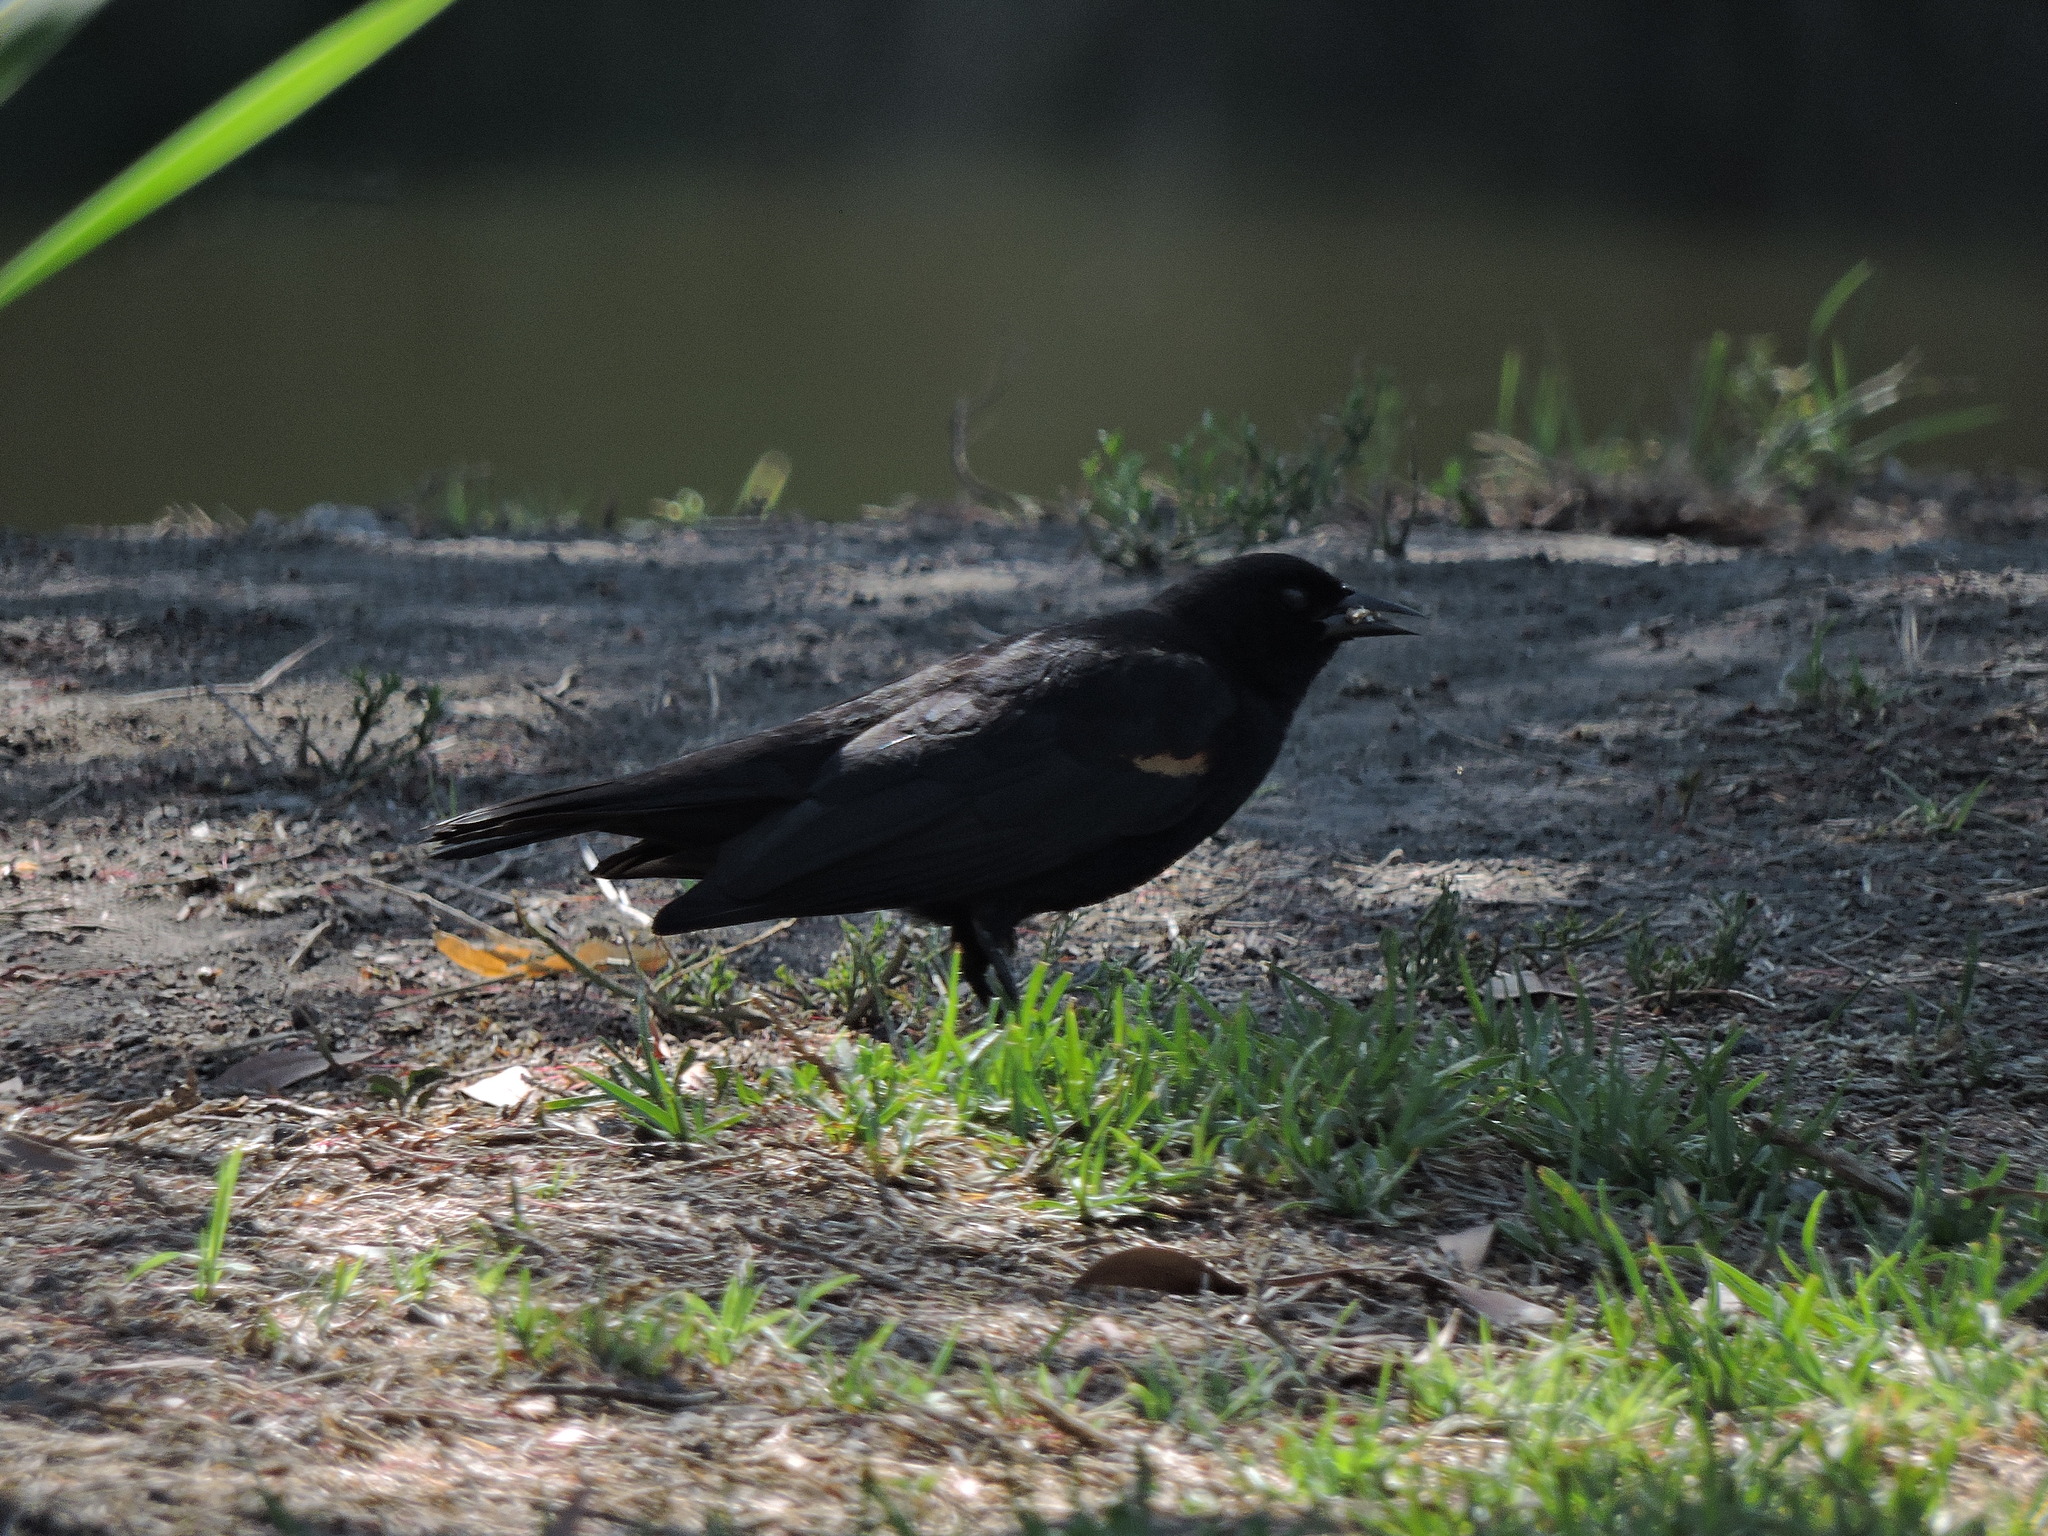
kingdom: Animalia
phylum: Chordata
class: Aves
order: Passeriformes
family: Icteridae
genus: Agelaius
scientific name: Agelaius phoeniceus
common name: Red-winged blackbird
